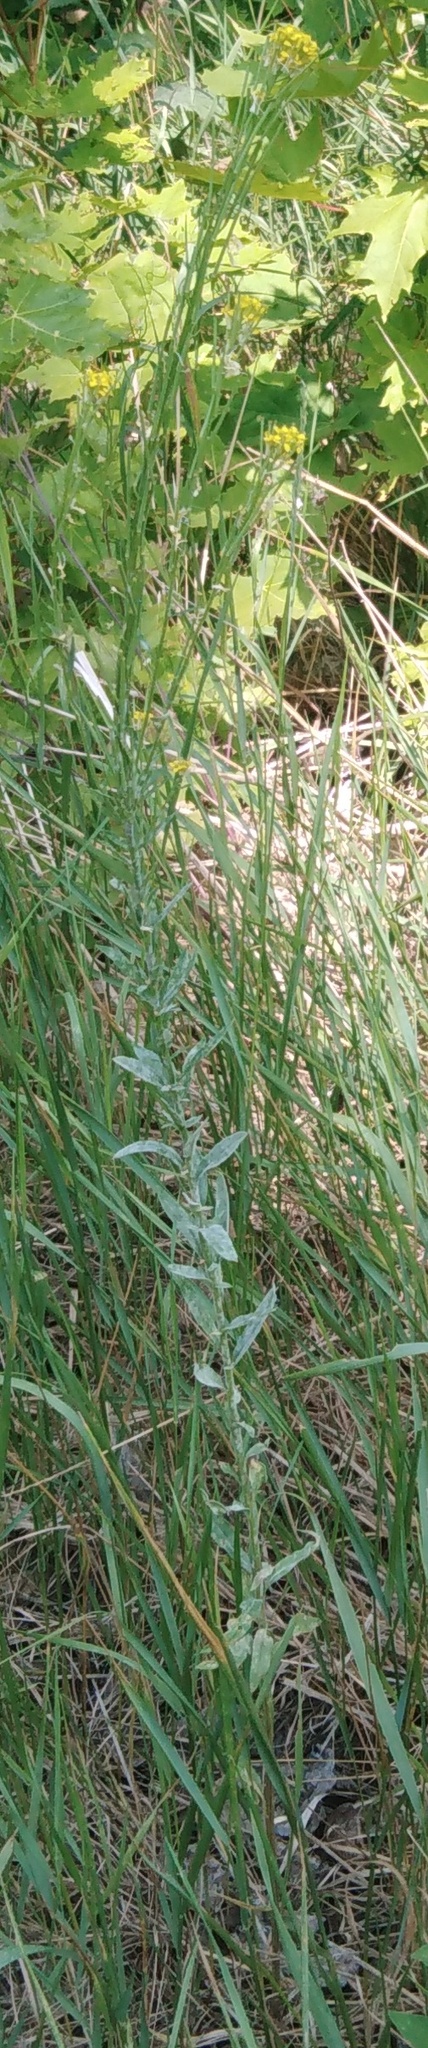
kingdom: Plantae
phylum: Tracheophyta
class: Magnoliopsida
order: Brassicales
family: Brassicaceae
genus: Erysimum
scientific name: Erysimum hieraciifolium
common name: European wallflower
